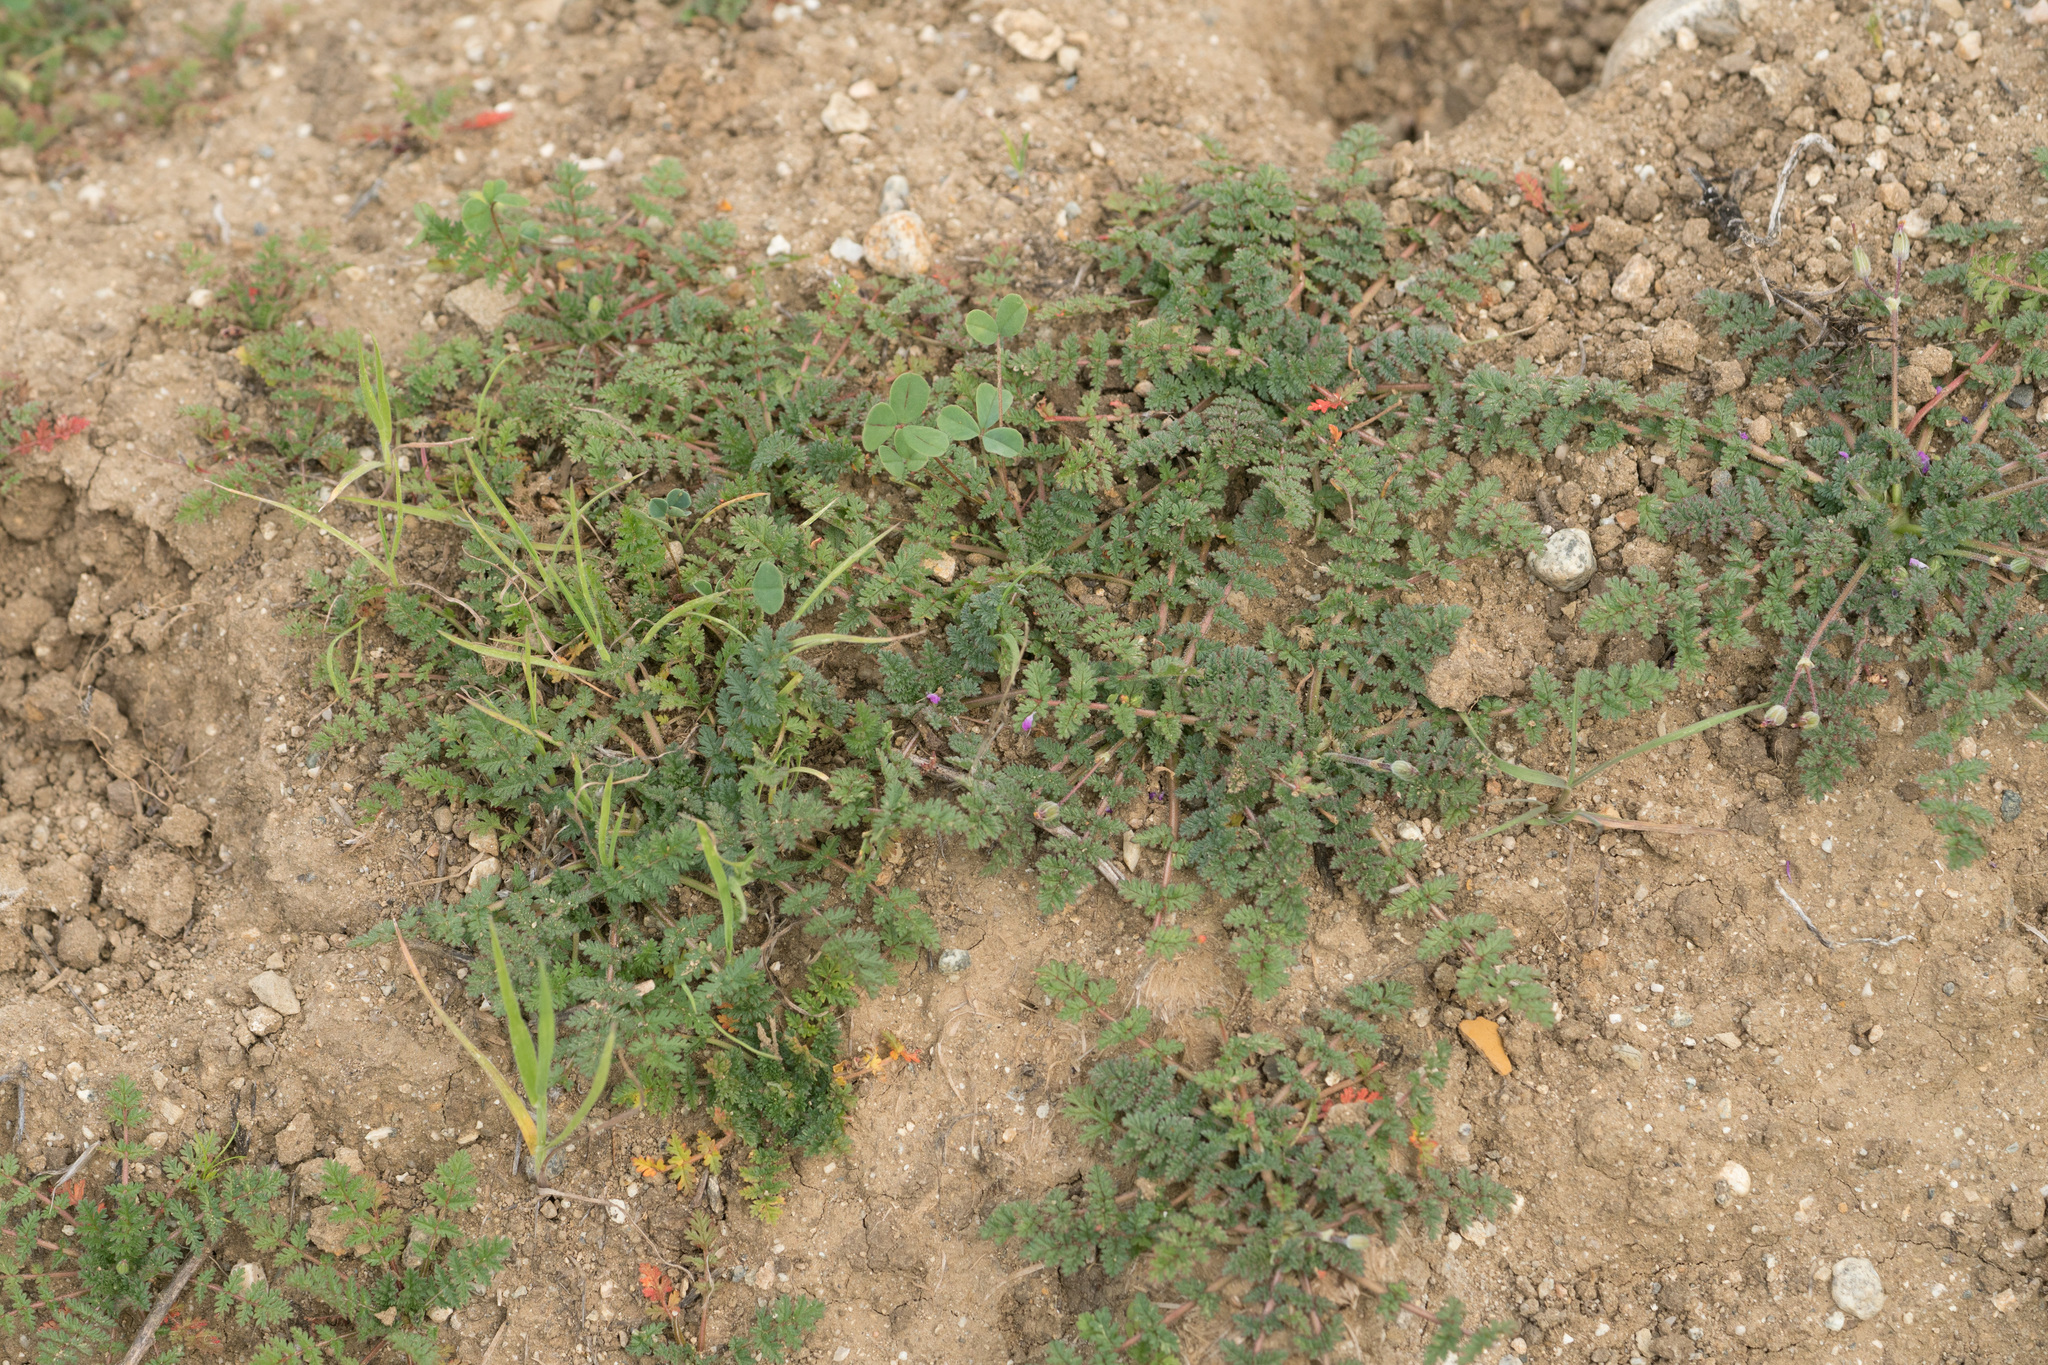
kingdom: Plantae
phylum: Tracheophyta
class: Magnoliopsida
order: Geraniales
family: Geraniaceae
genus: Erodium
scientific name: Erodium cicutarium
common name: Common stork's-bill
